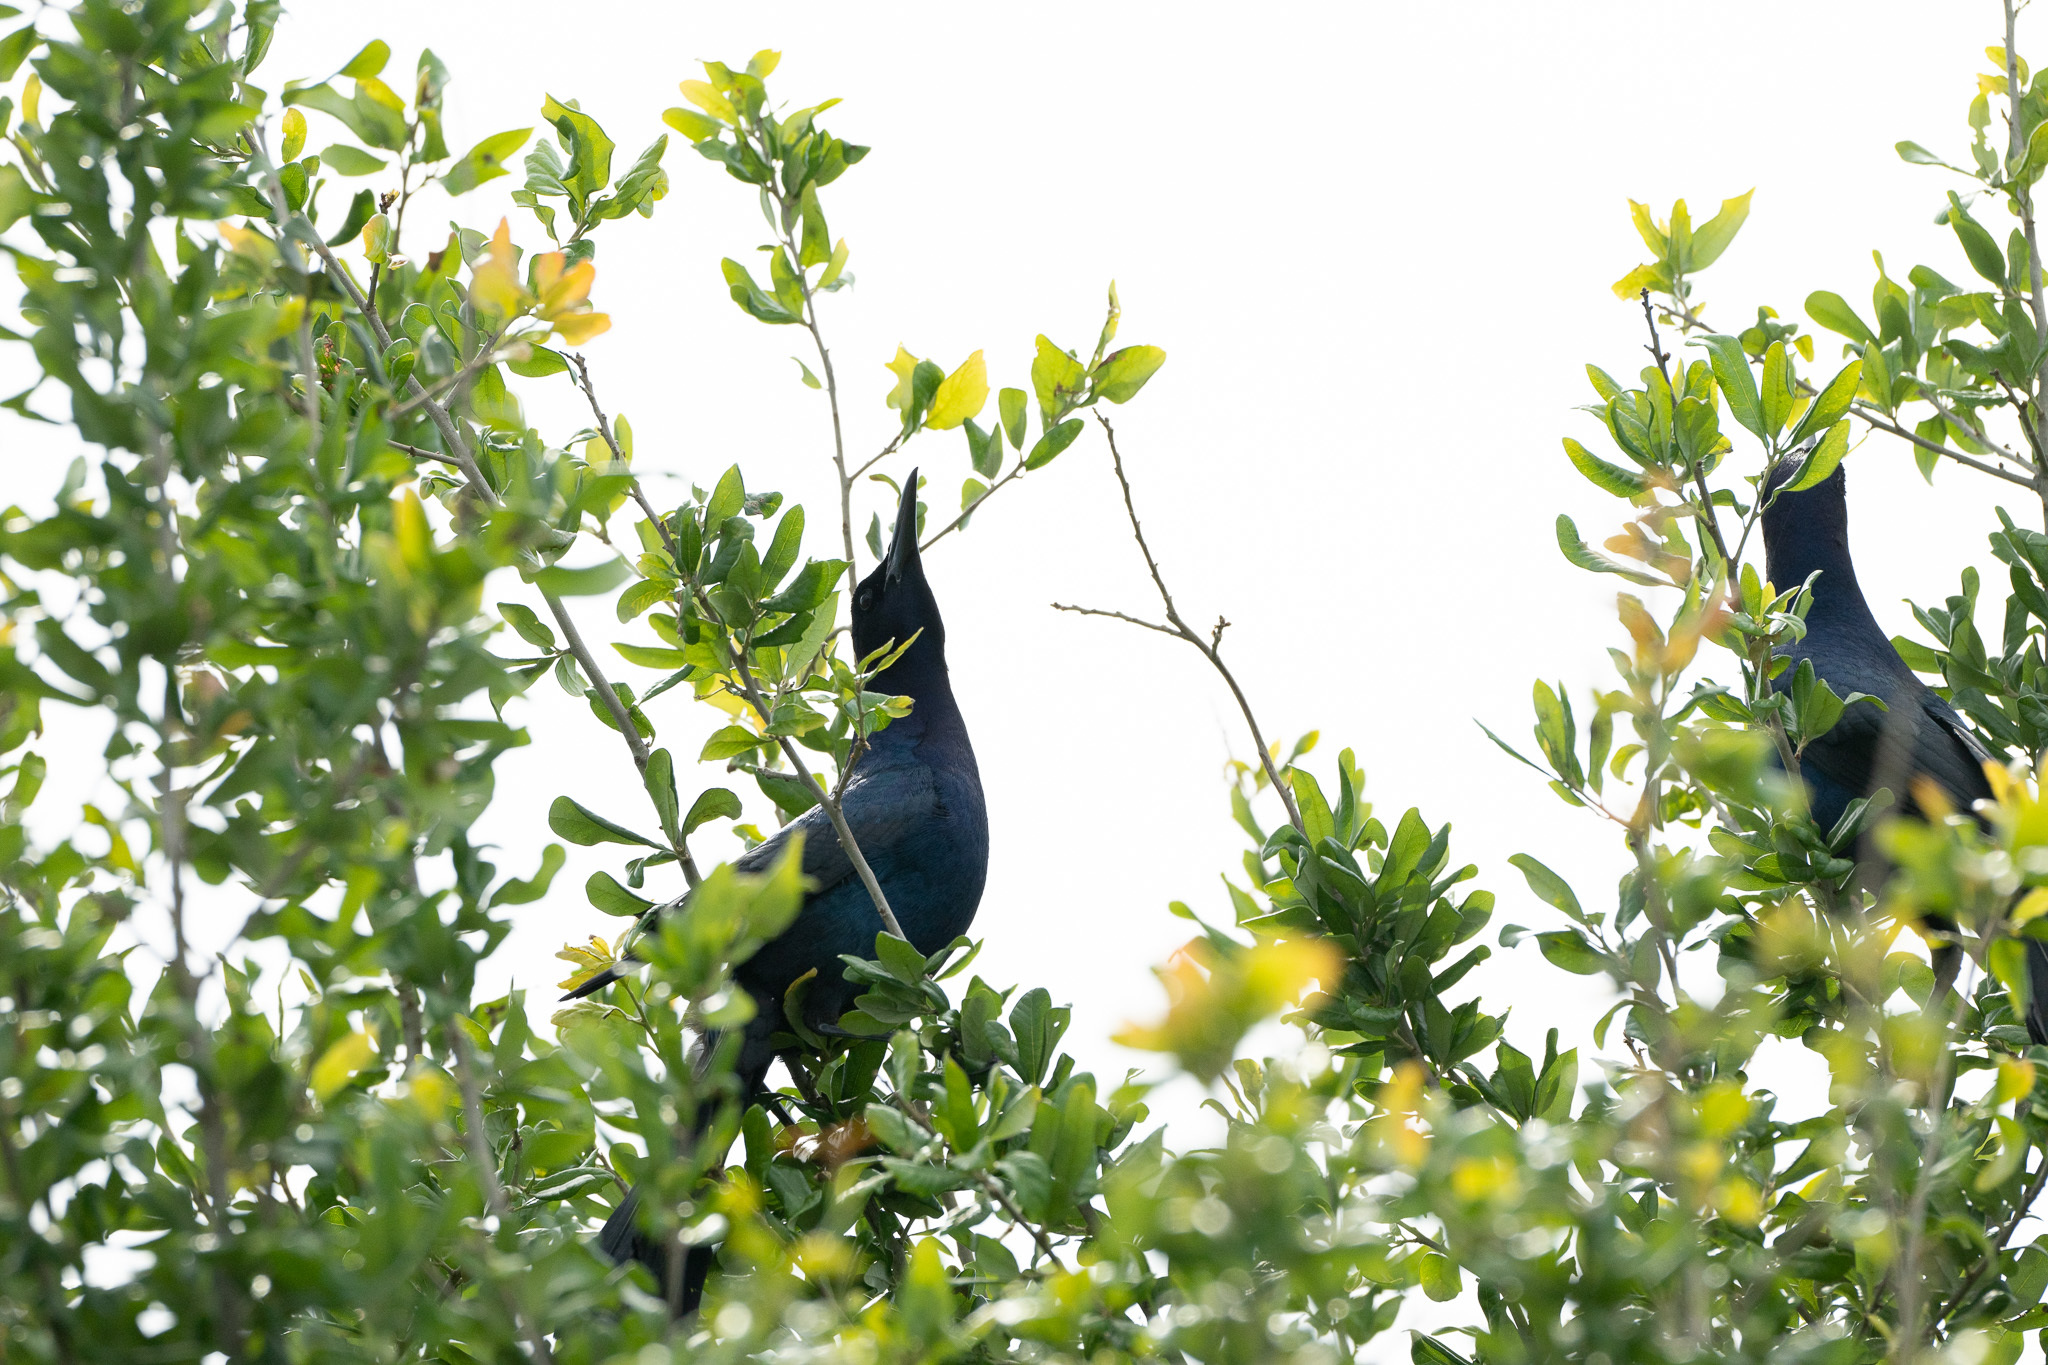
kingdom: Animalia
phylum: Chordata
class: Aves
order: Passeriformes
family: Icteridae
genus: Quiscalus
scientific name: Quiscalus major
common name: Boat-tailed grackle
